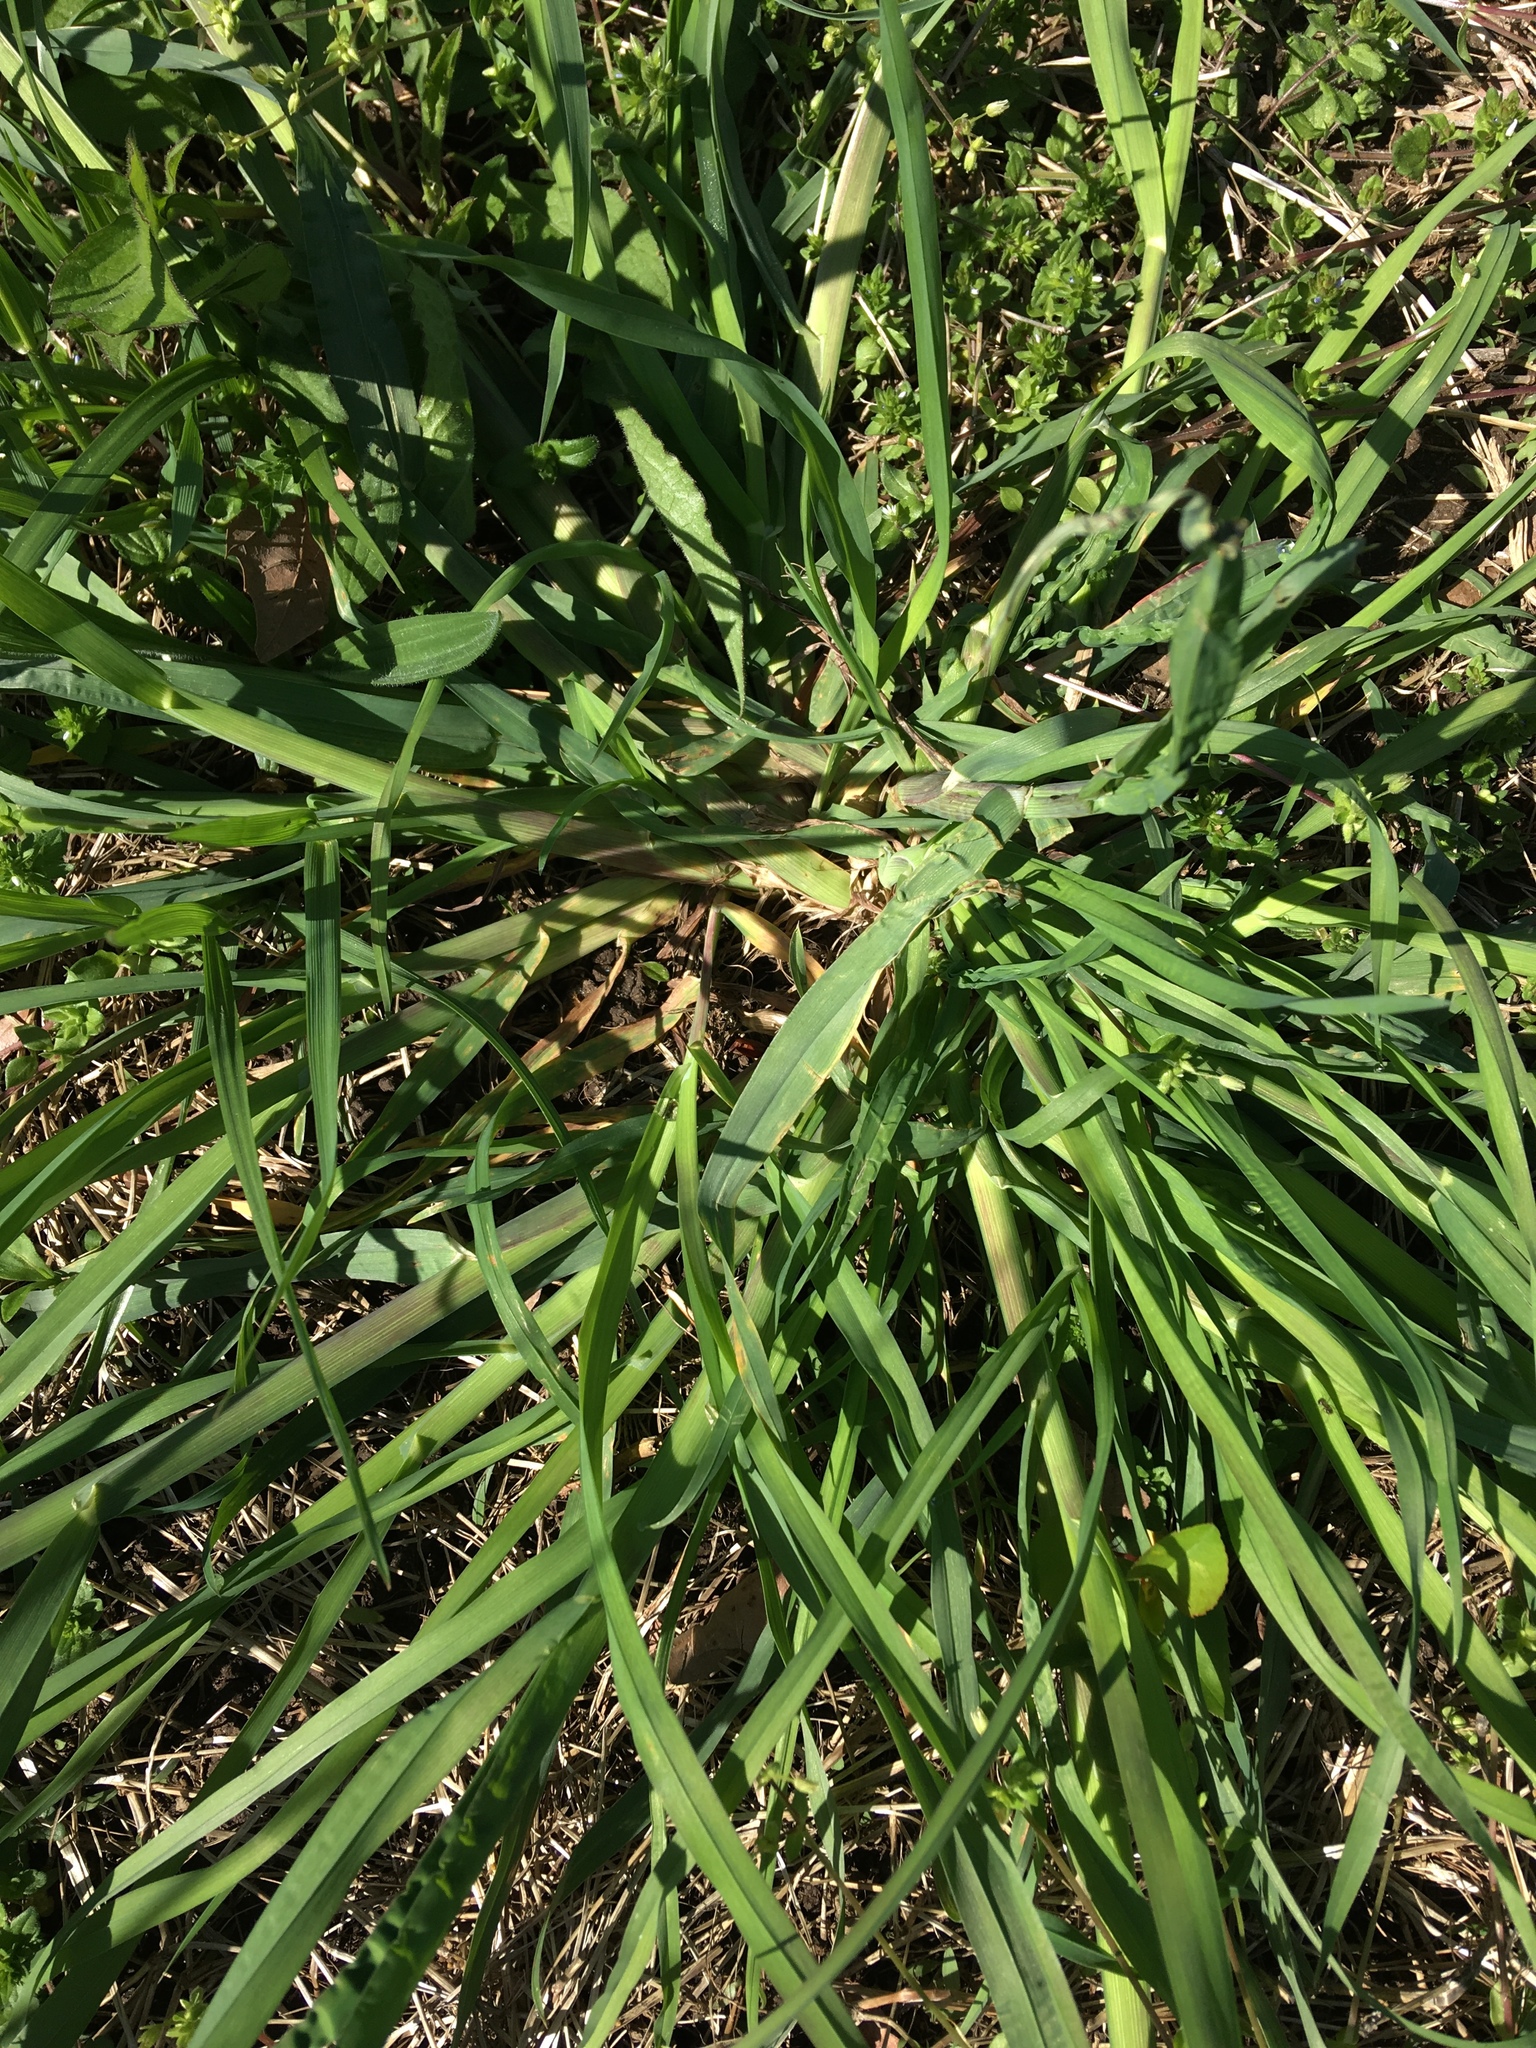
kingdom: Plantae
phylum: Tracheophyta
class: Liliopsida
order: Poales
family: Poaceae
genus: Dactylis
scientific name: Dactylis glomerata
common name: Orchardgrass
